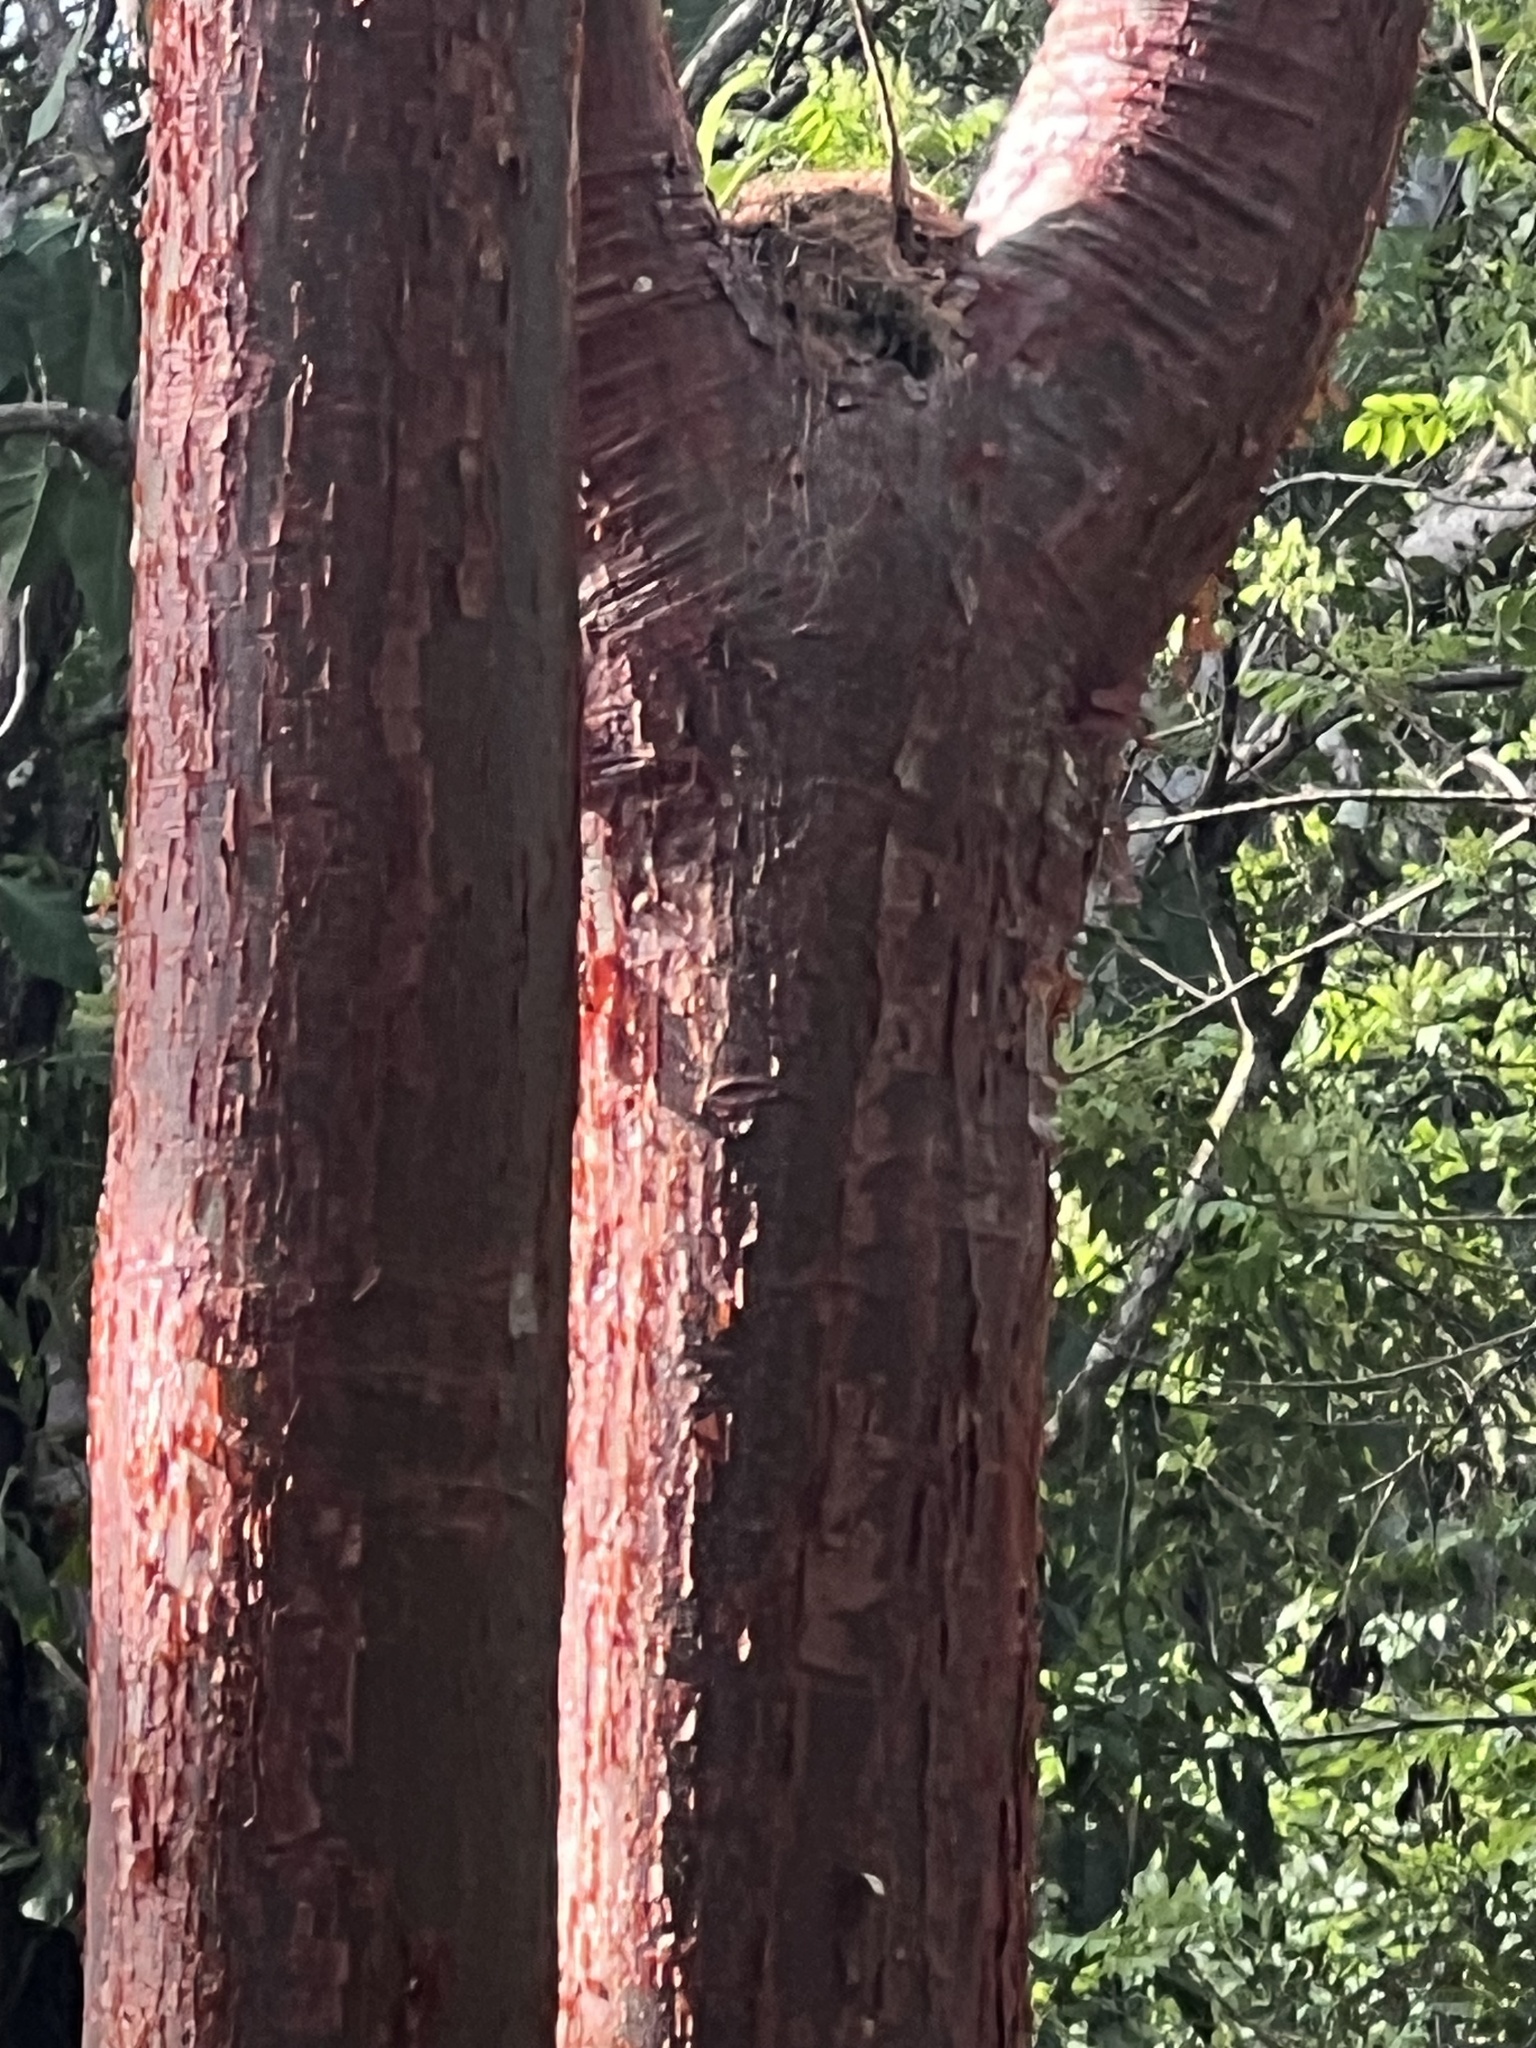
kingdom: Plantae
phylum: Tracheophyta
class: Magnoliopsida
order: Sapindales
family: Burseraceae
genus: Bursera
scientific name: Bursera simaruba
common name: Turpentine tree
